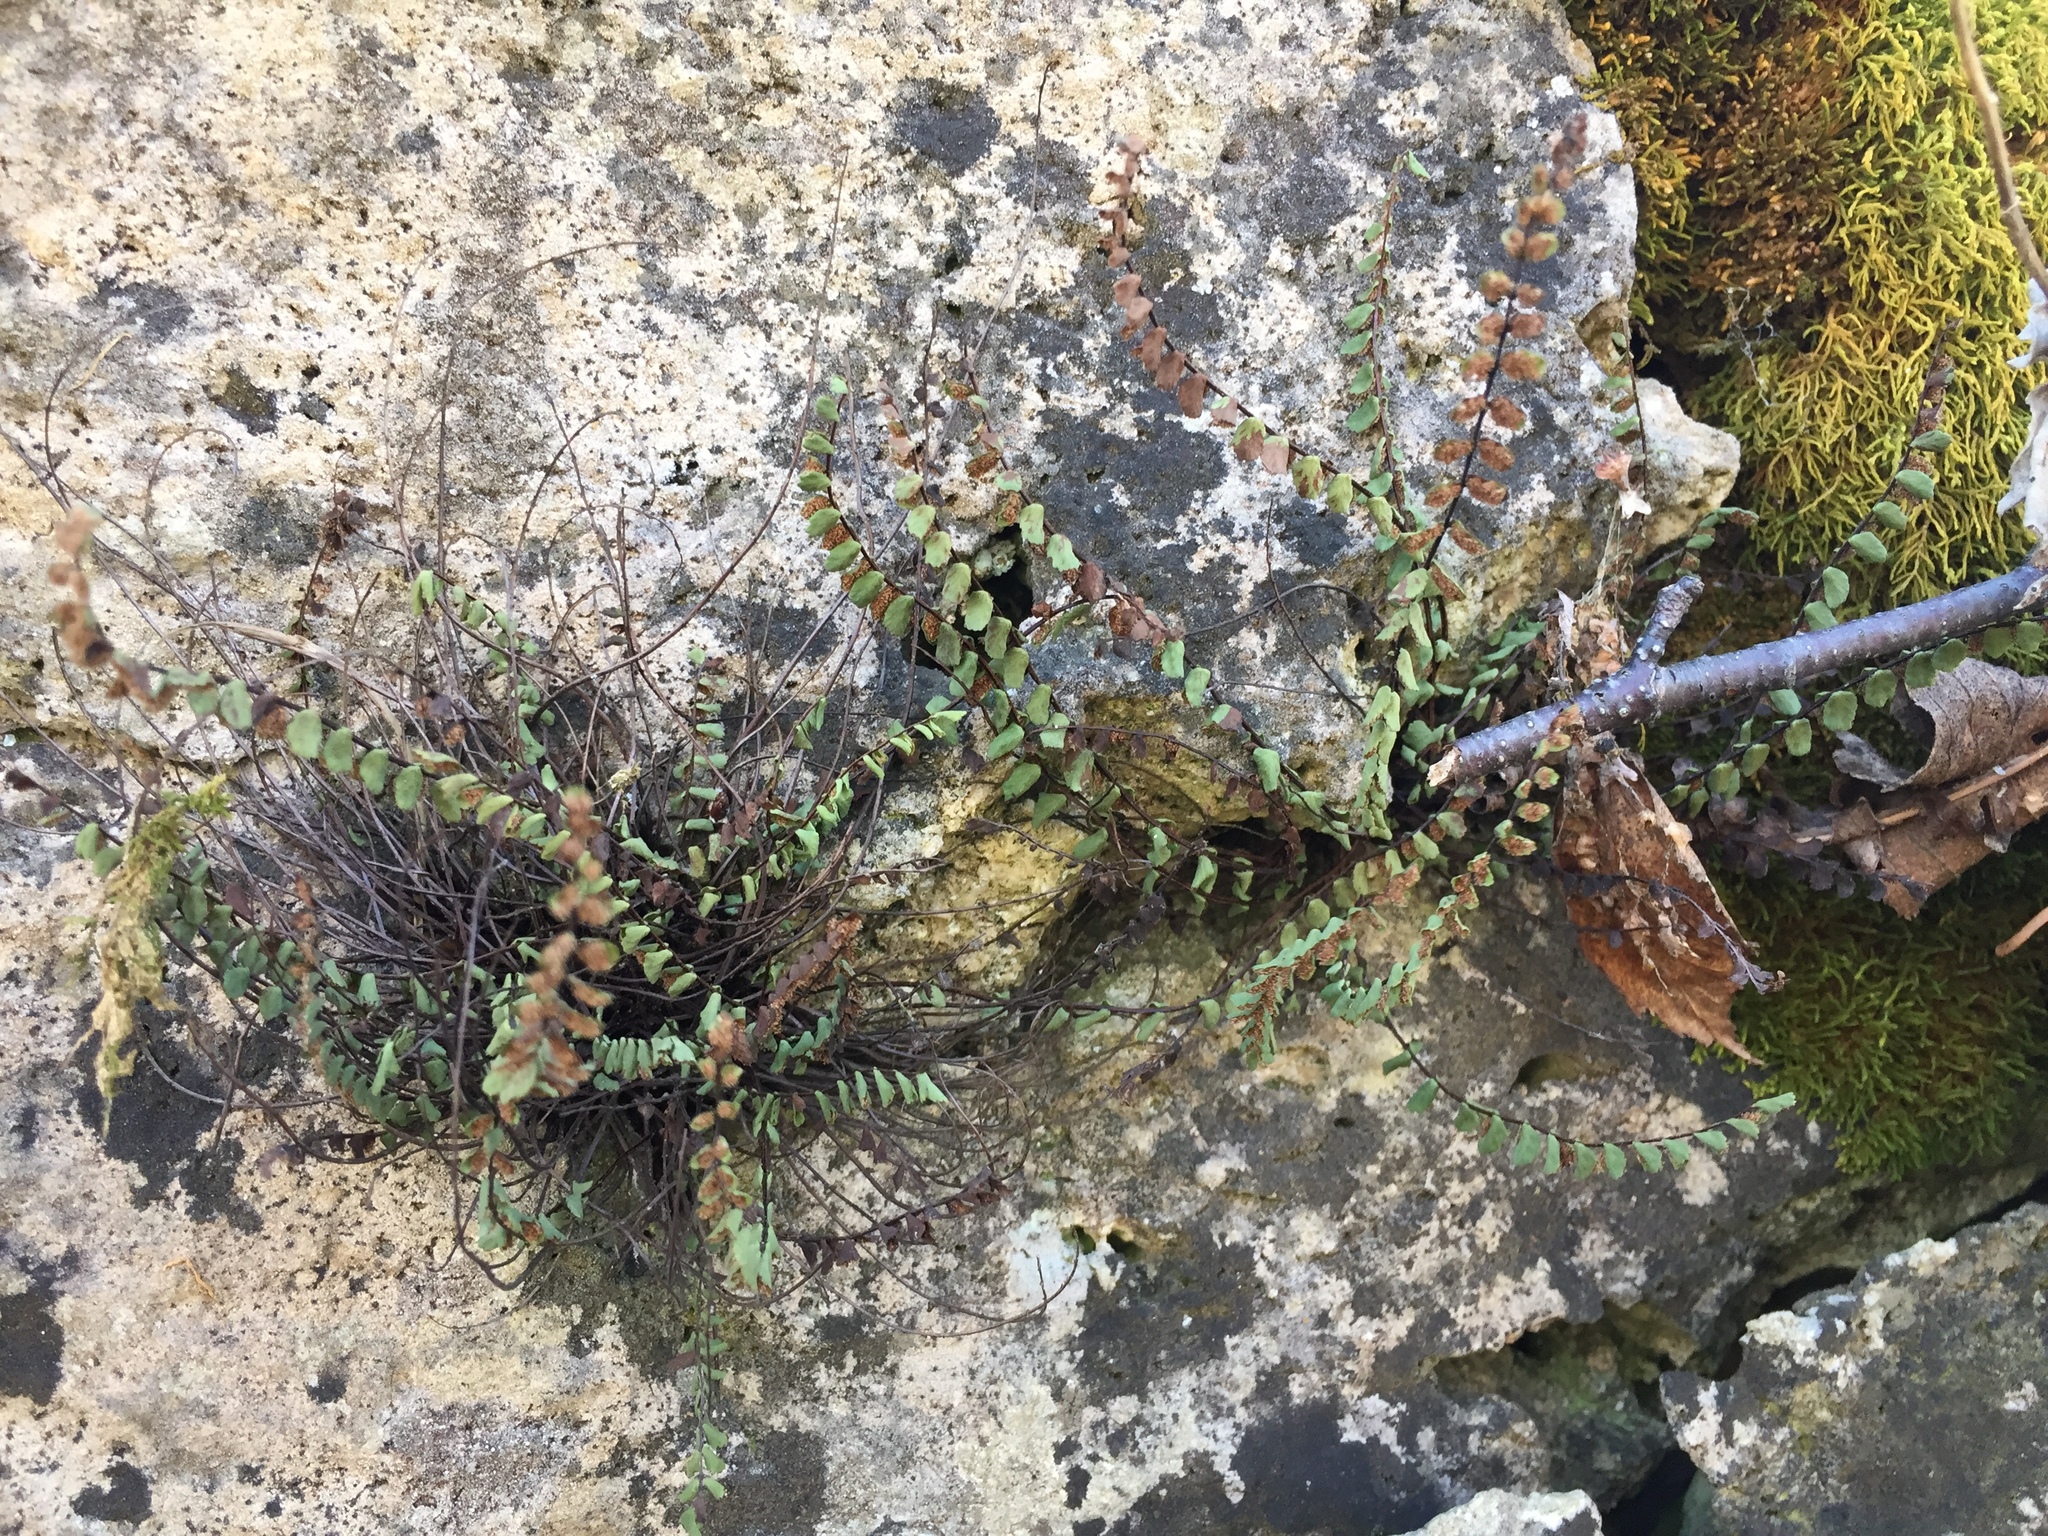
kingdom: Plantae
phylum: Tracheophyta
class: Polypodiopsida
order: Polypodiales
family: Aspleniaceae
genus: Asplenium
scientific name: Asplenium trichomanes
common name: Maidenhair spleenwort
